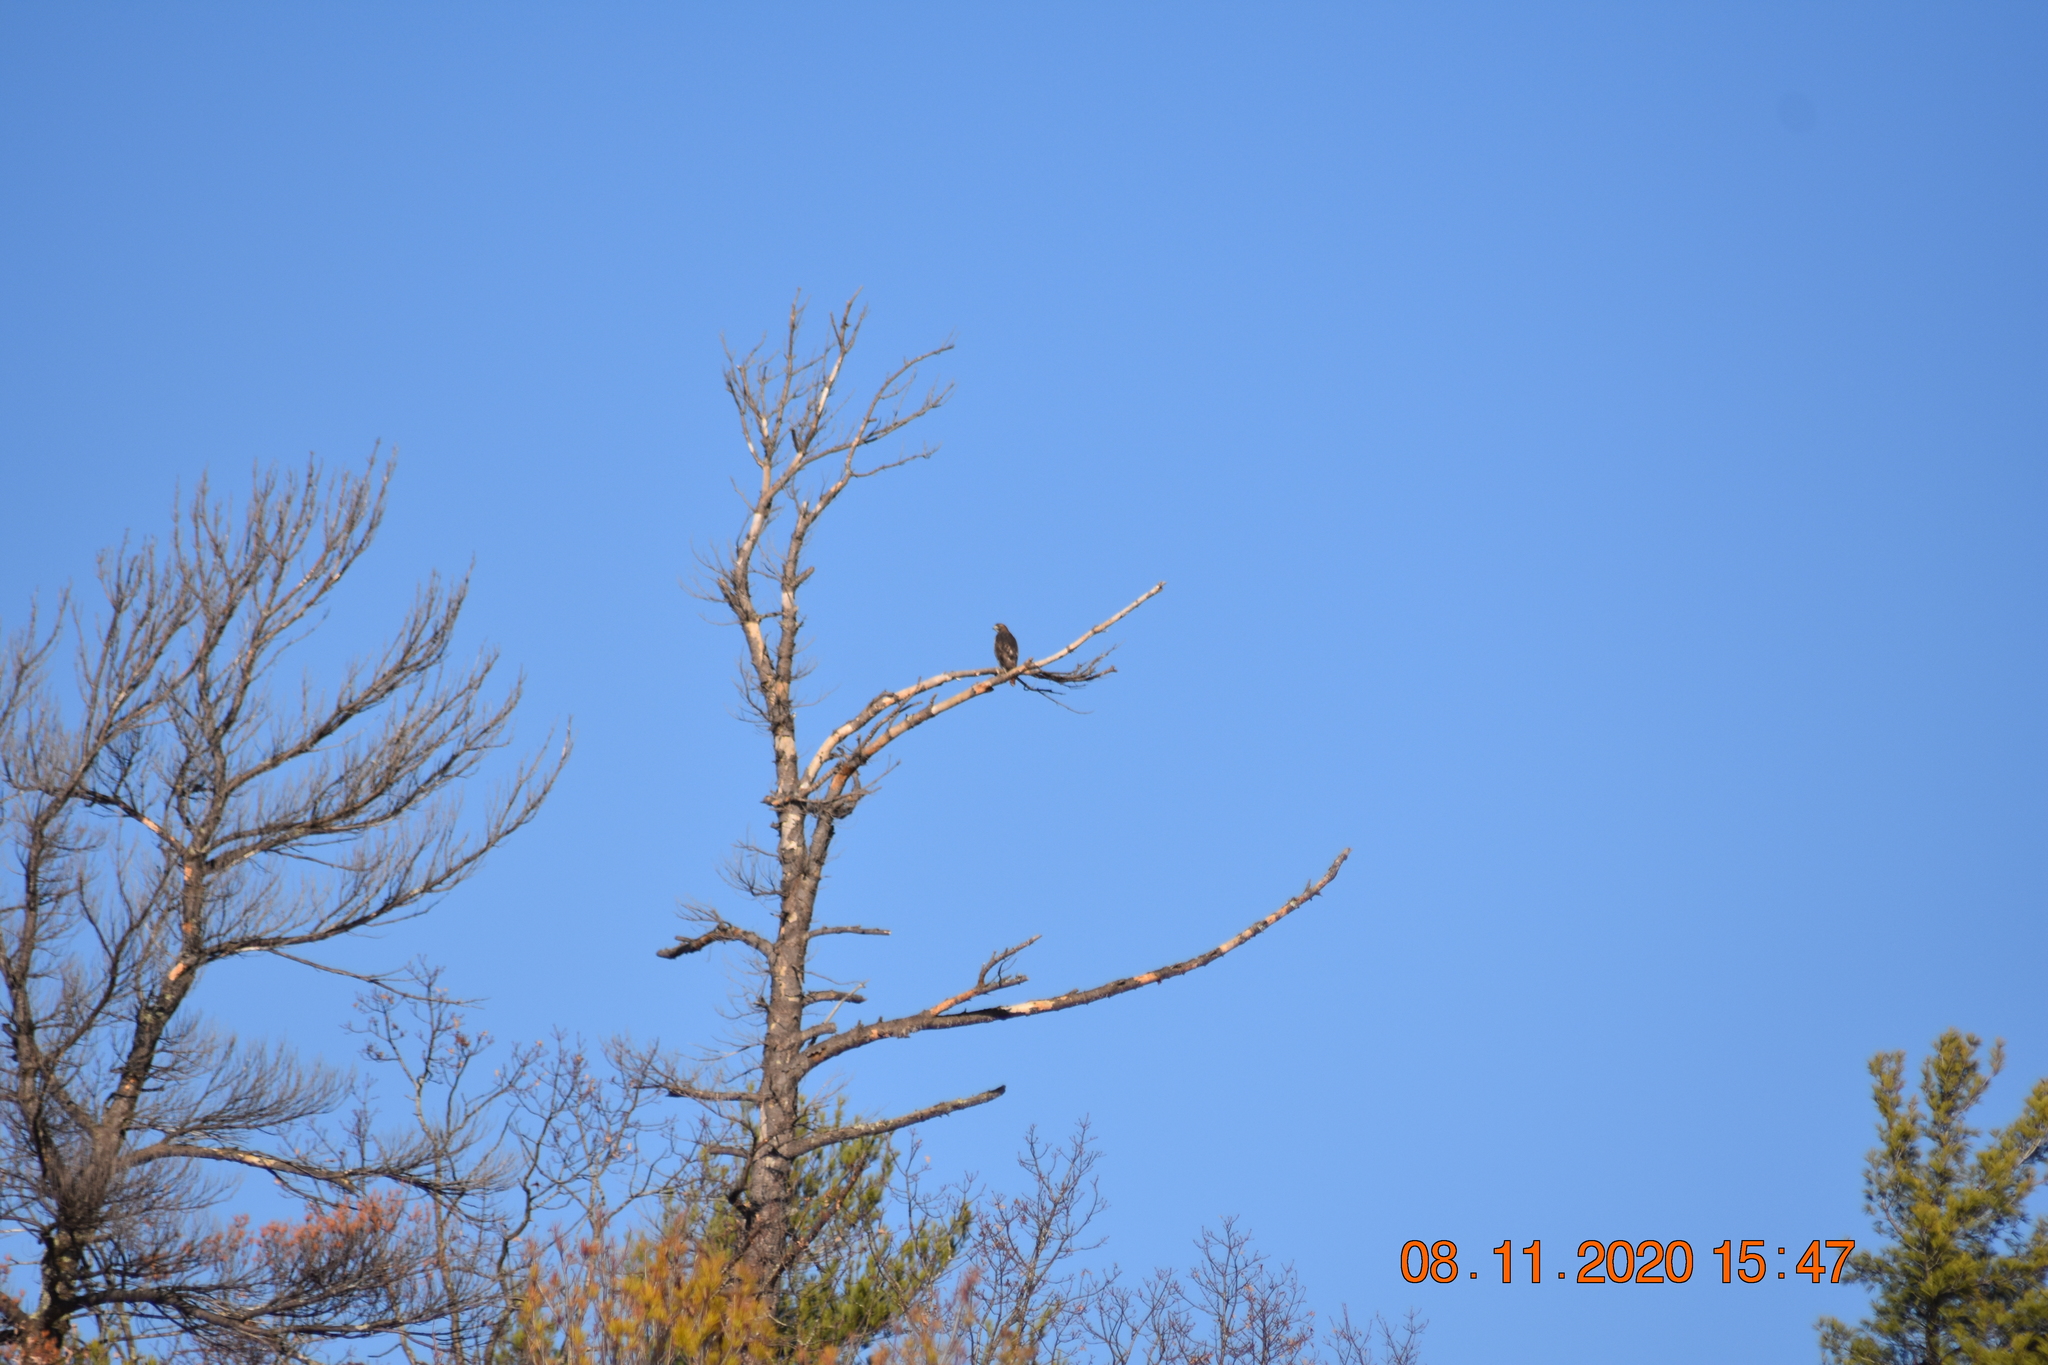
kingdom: Animalia
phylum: Chordata
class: Aves
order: Accipitriformes
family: Accipitridae
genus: Buteo
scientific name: Buteo jamaicensis
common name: Red-tailed hawk
